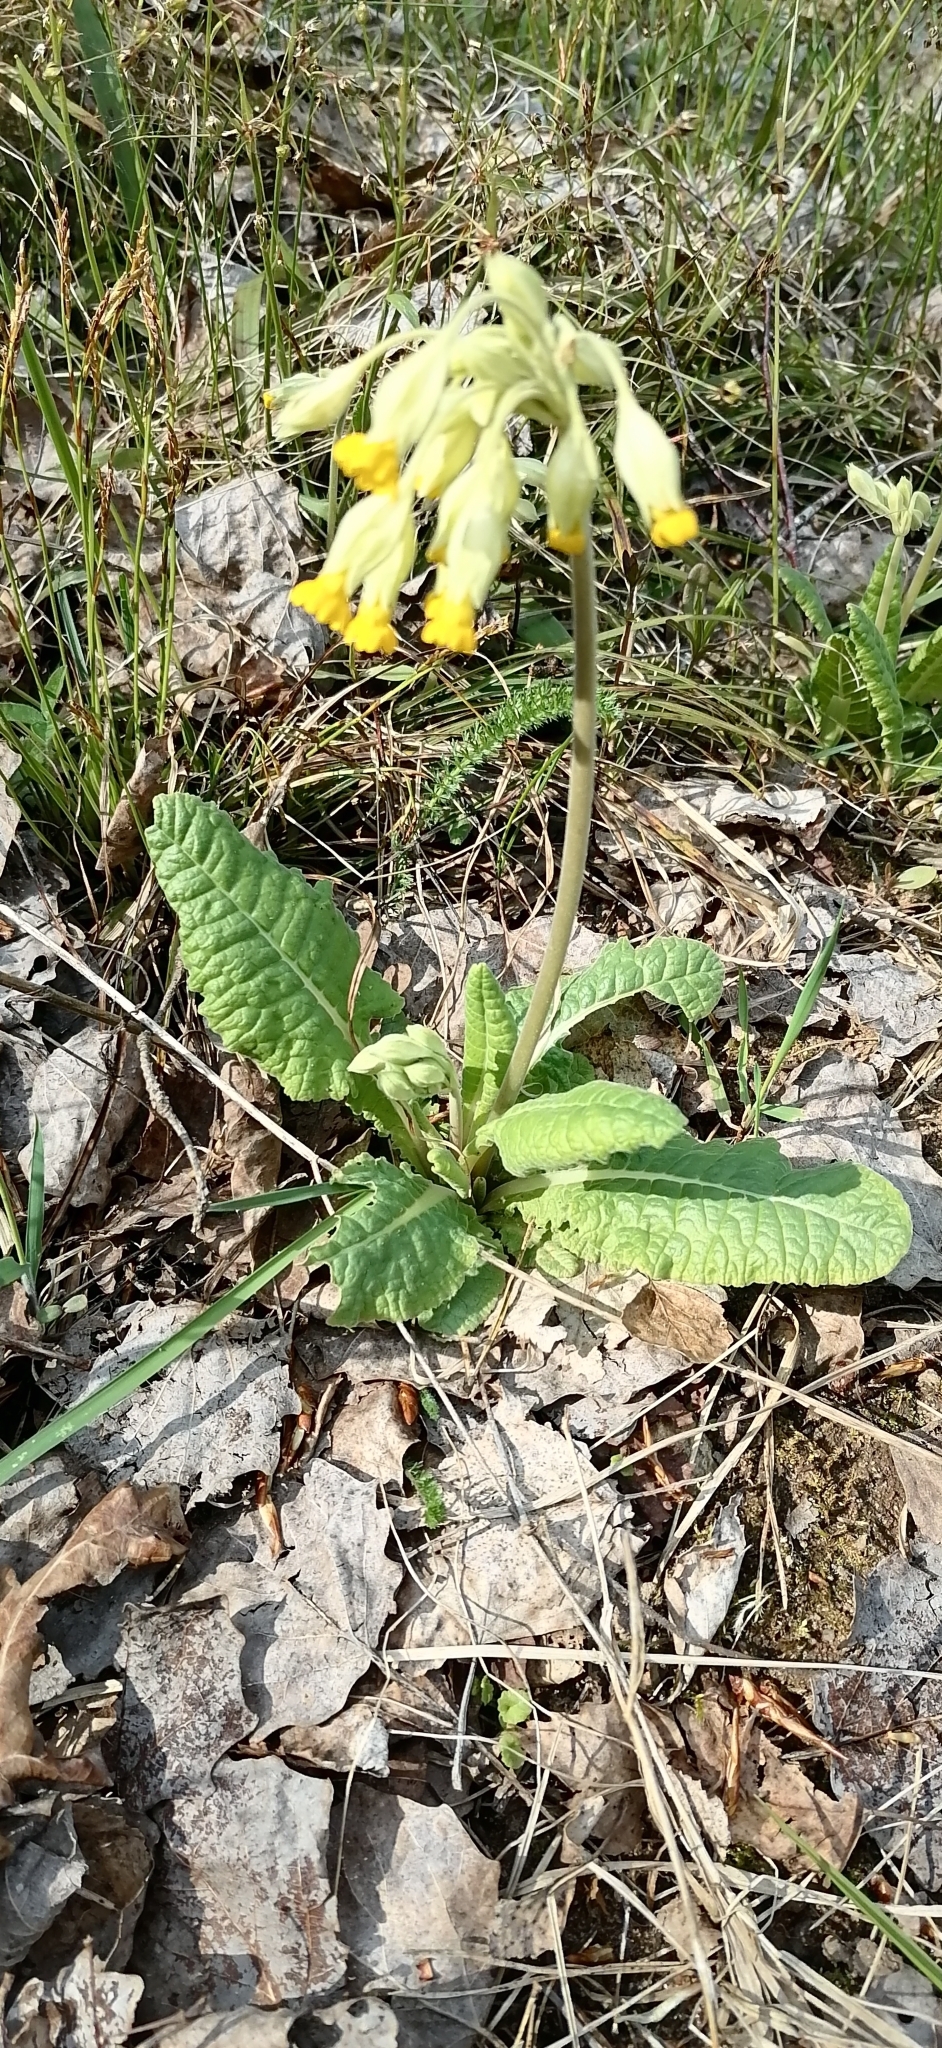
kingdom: Plantae
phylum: Tracheophyta
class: Magnoliopsida
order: Ericales
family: Primulaceae
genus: Primula
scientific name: Primula veris
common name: Cowslip
